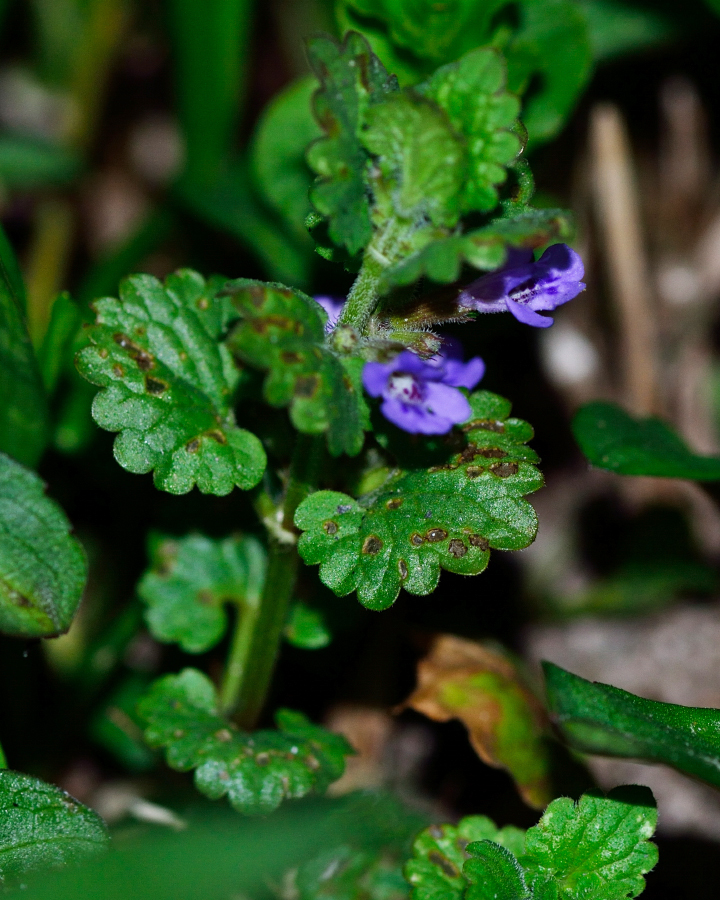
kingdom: Plantae
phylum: Tracheophyta
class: Magnoliopsida
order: Lamiales
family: Lamiaceae
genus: Glechoma
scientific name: Glechoma hederacea
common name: Ground ivy
